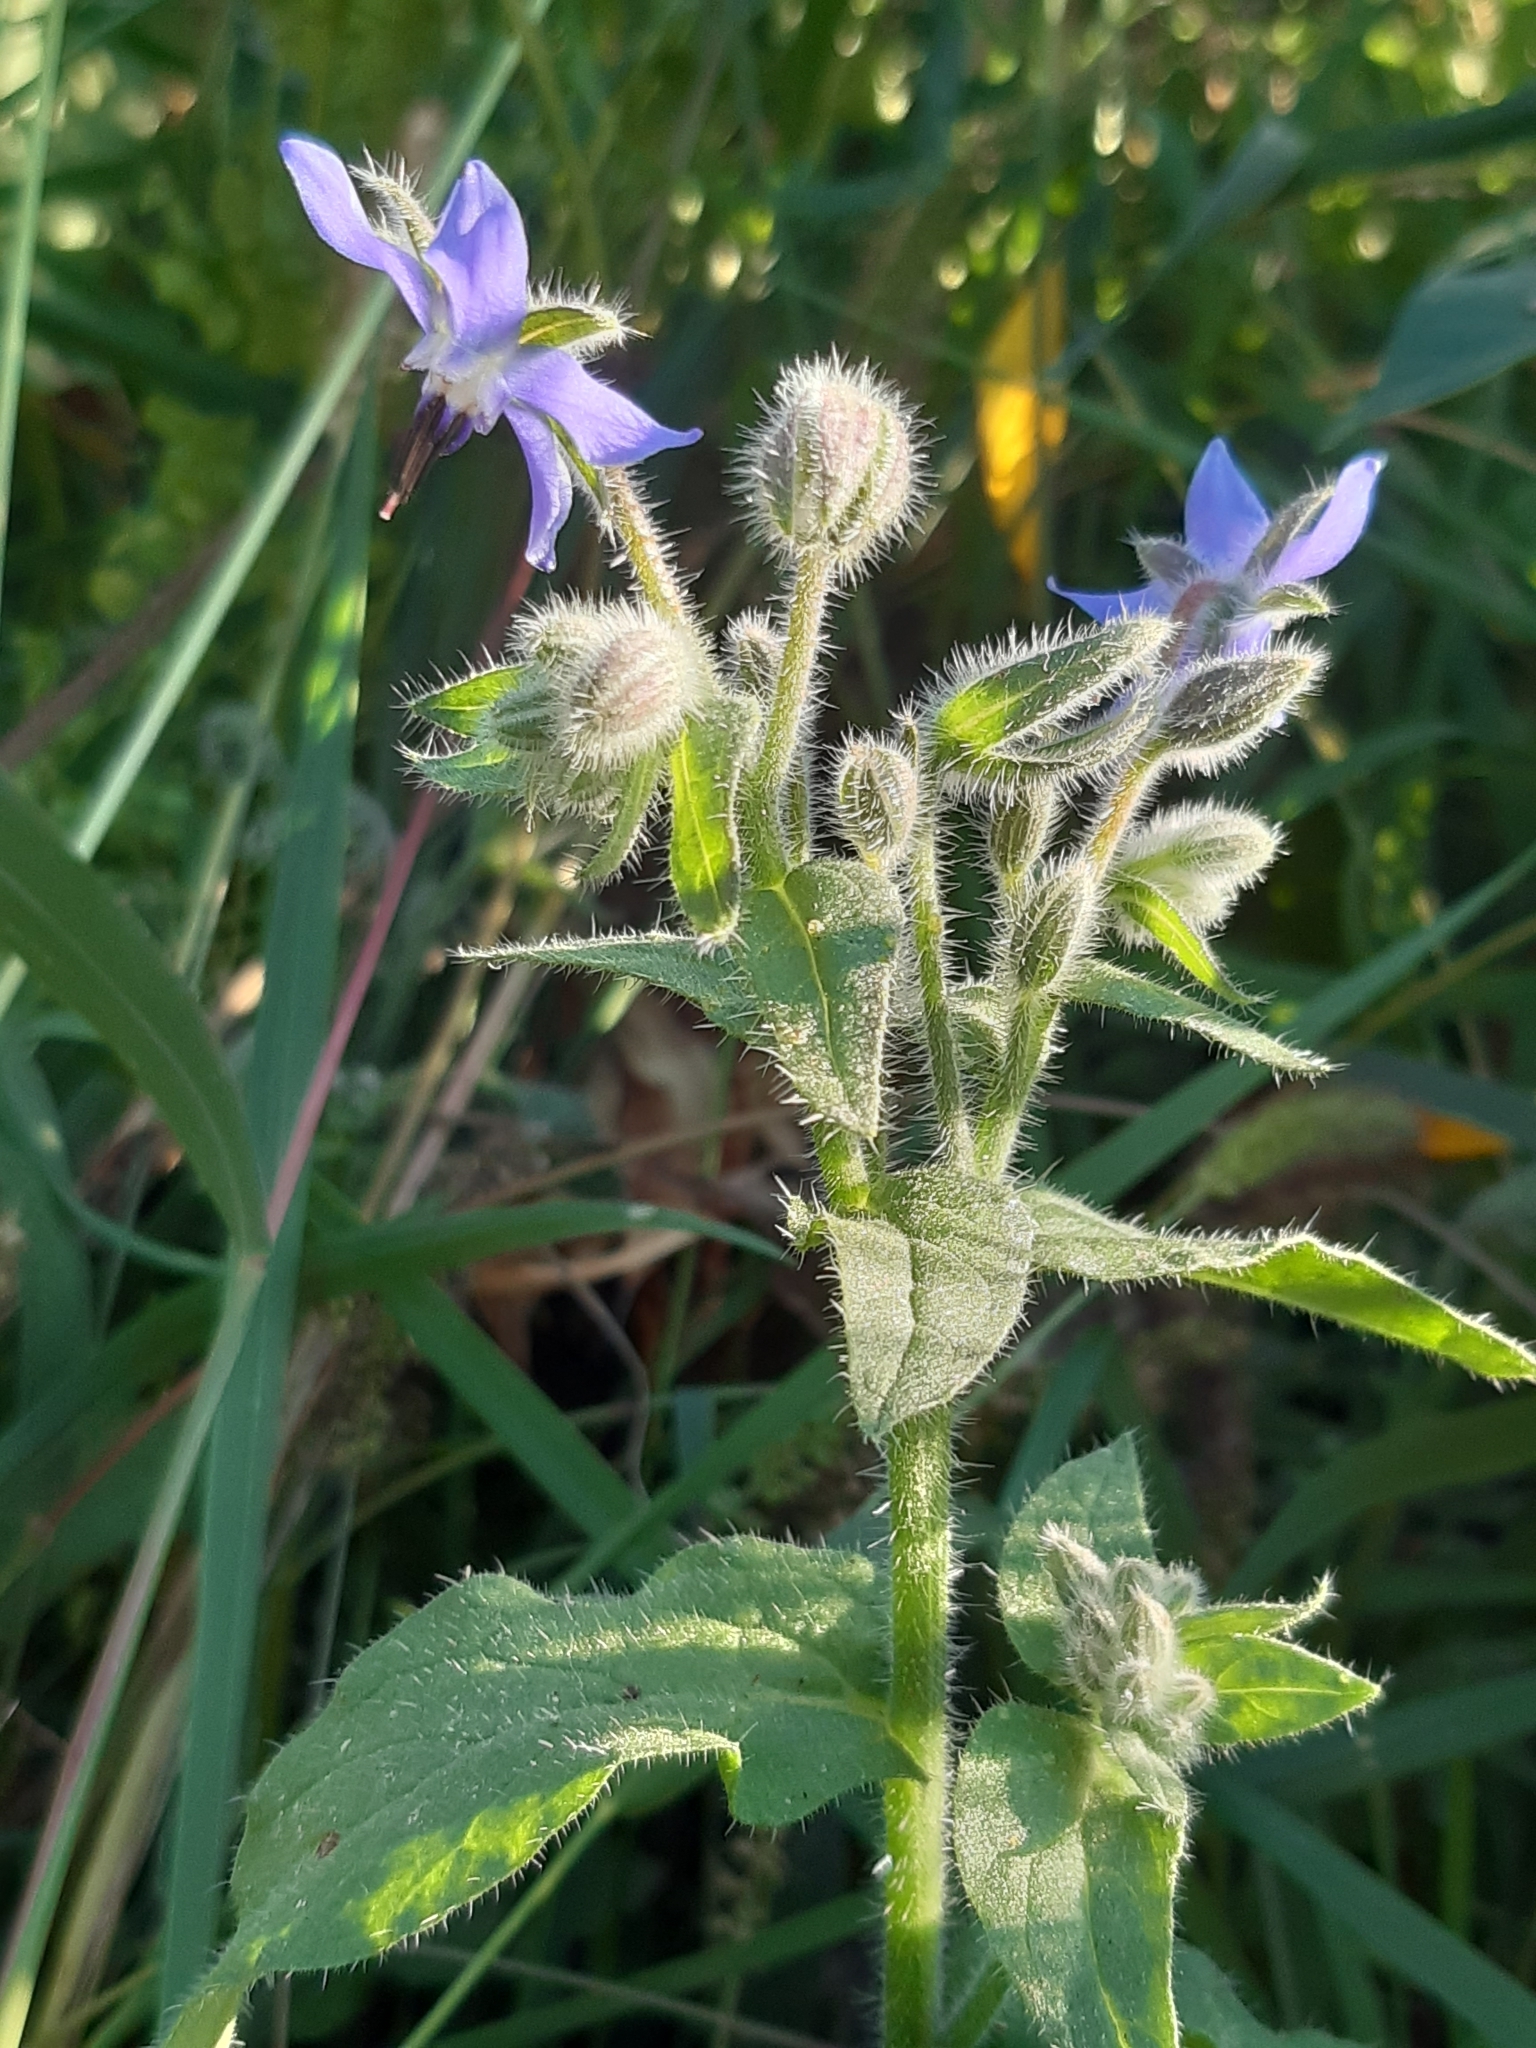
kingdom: Plantae
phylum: Tracheophyta
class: Magnoliopsida
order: Boraginales
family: Boraginaceae
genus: Borago
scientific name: Borago officinalis
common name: Borage
